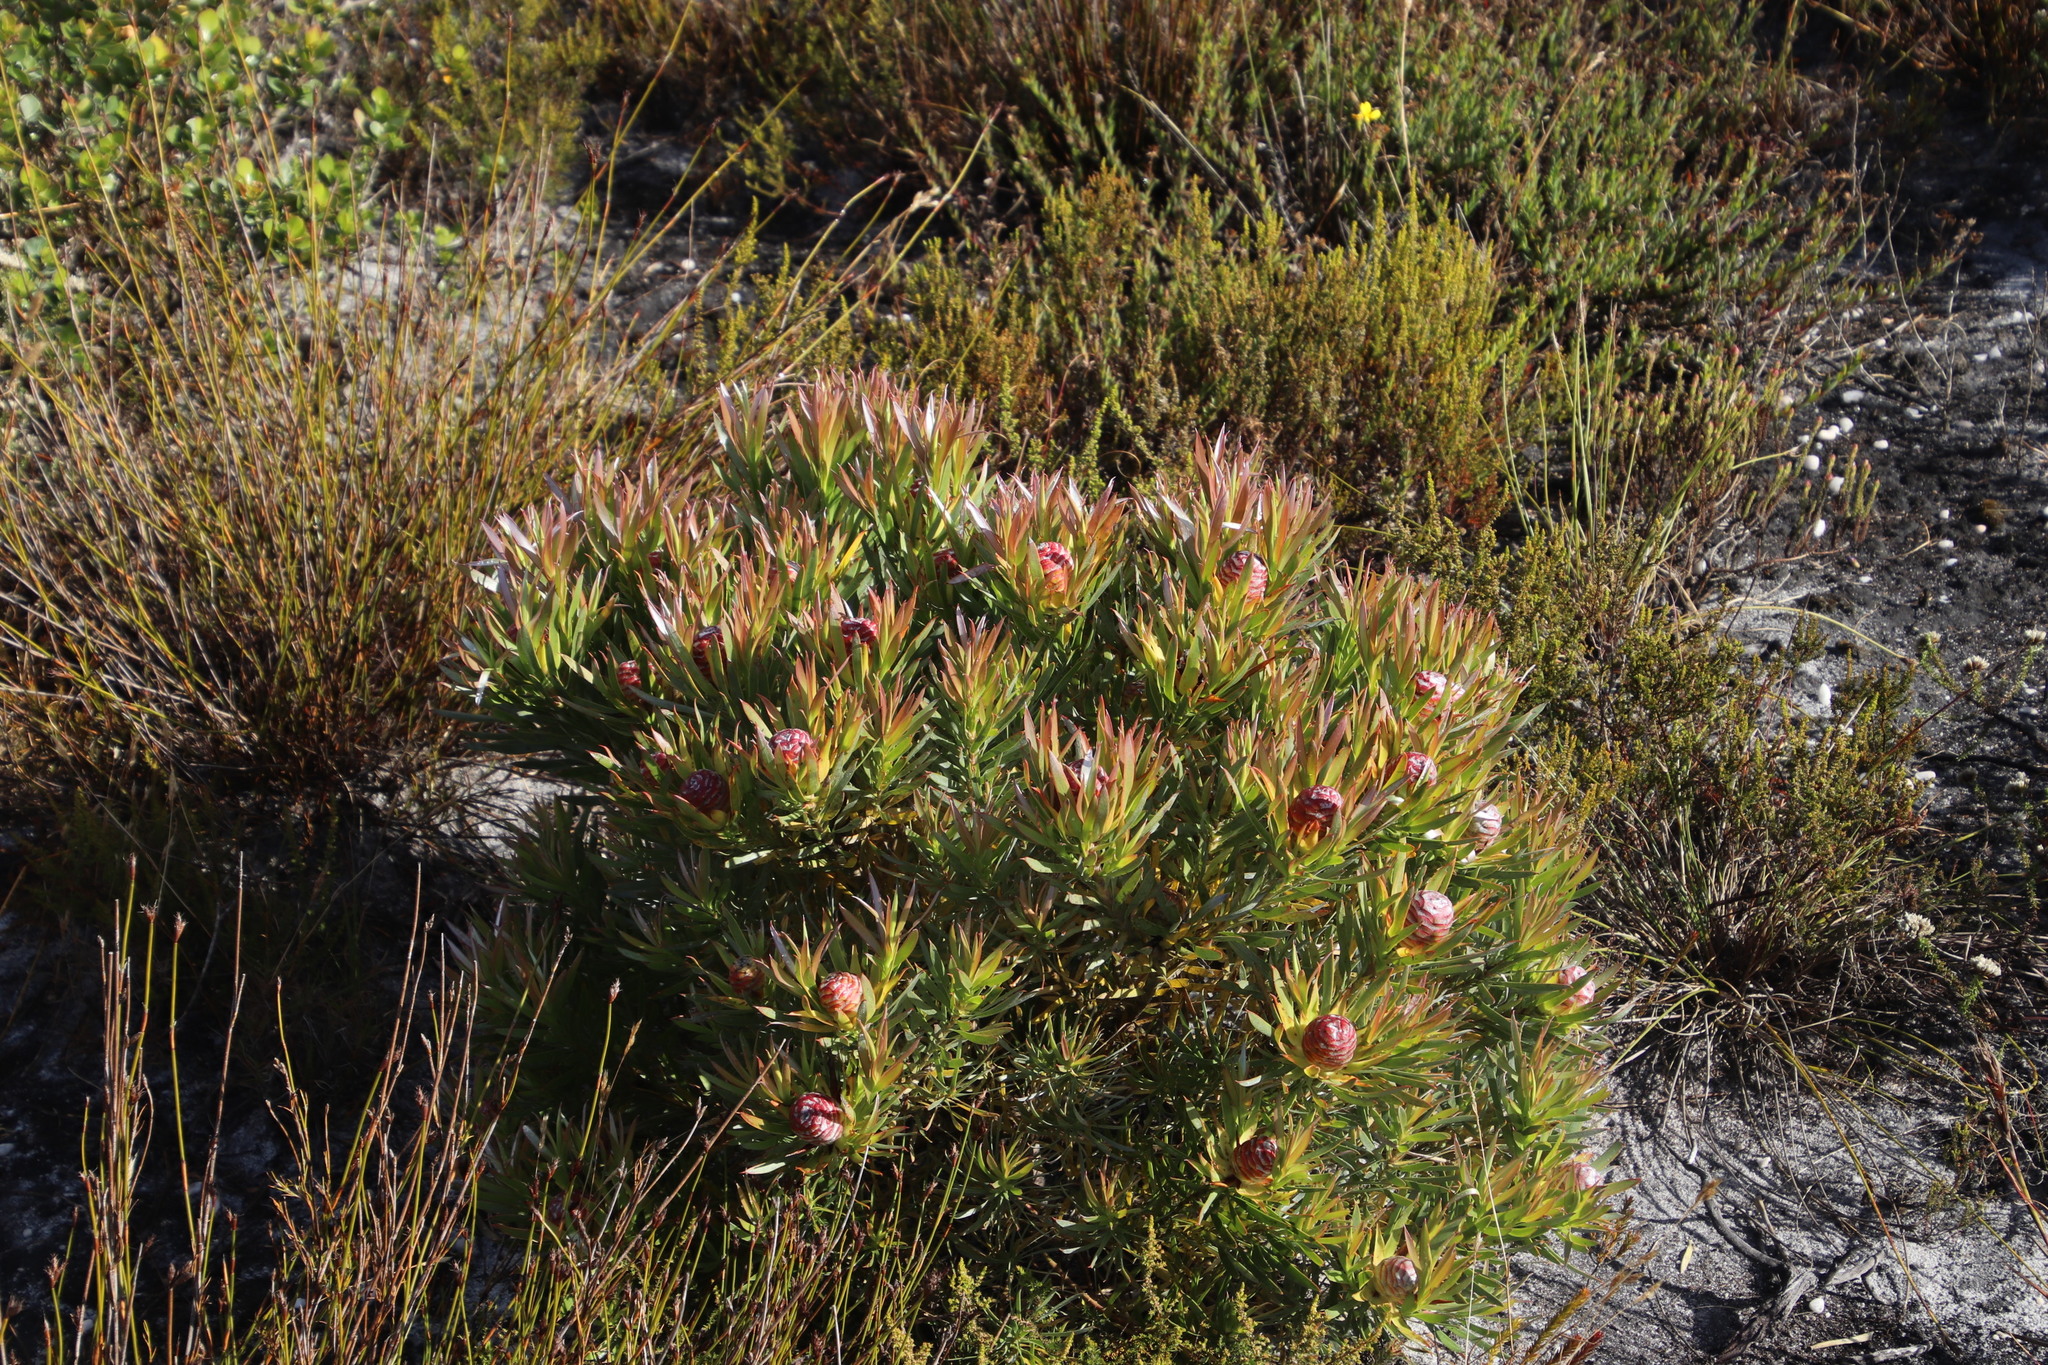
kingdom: Plantae
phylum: Tracheophyta
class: Magnoliopsida
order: Proteales
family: Proteaceae
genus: Leucadendron
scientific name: Leucadendron xanthoconus
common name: Sickle-leaf conebush
